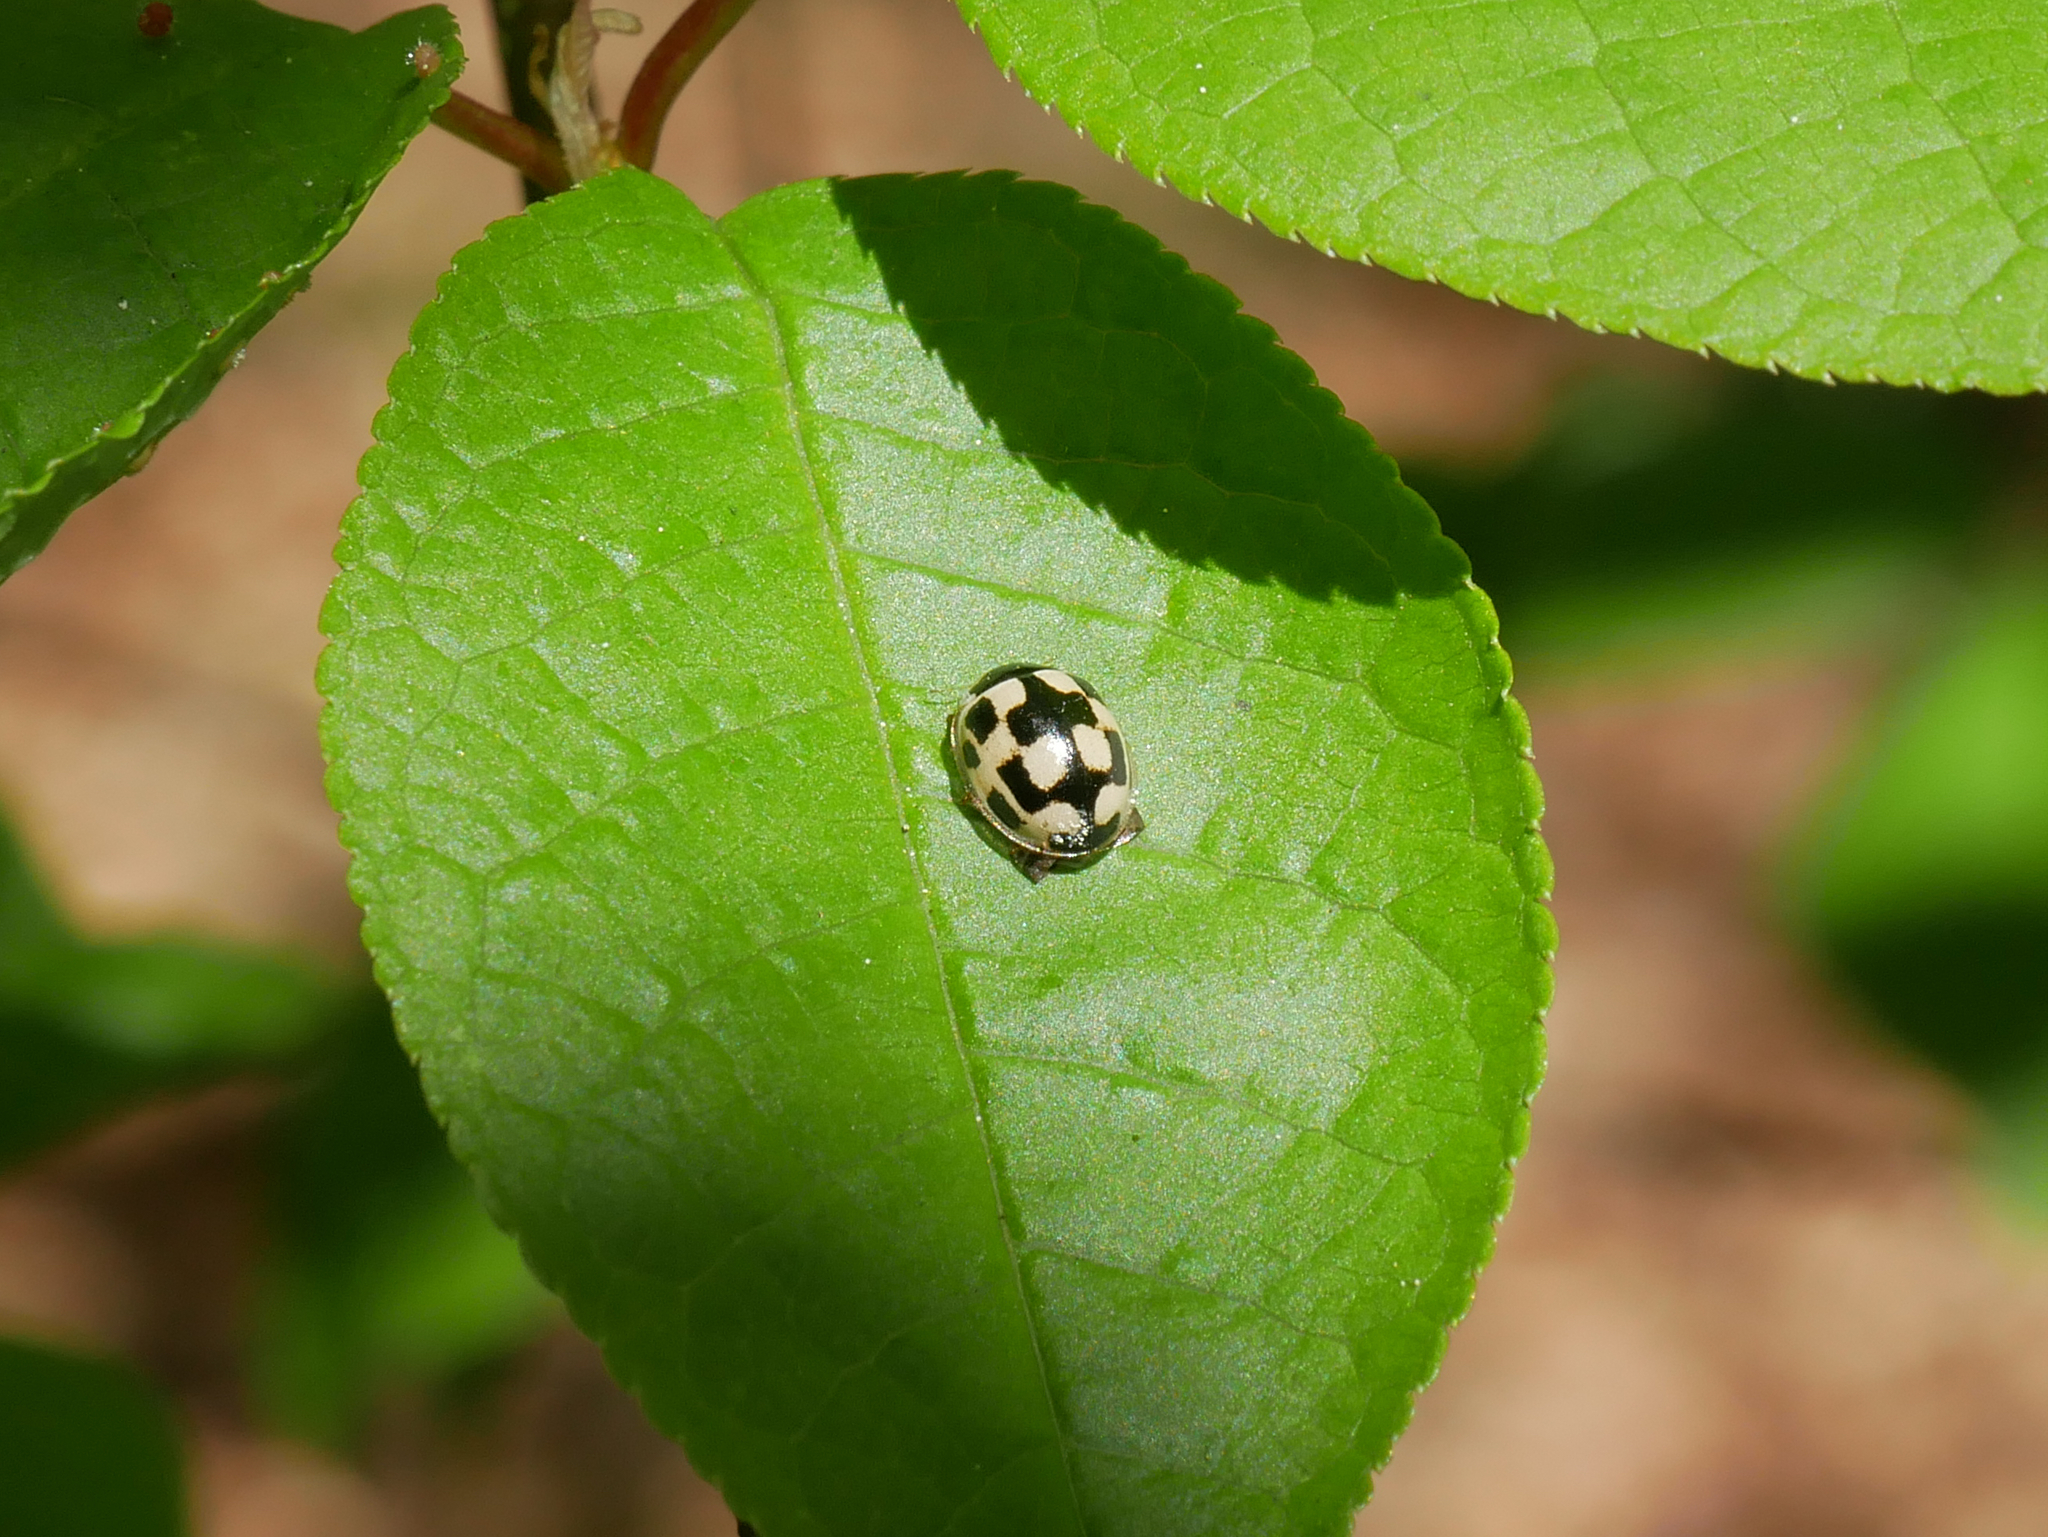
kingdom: Animalia
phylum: Arthropoda
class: Insecta
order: Coleoptera
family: Coccinellidae
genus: Propylaea
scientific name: Propylaea quatuordecimpunctata
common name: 14-spotted ladybird beetle
